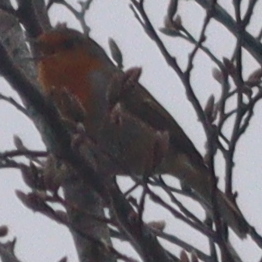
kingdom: Animalia
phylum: Chordata
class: Aves
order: Passeriformes
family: Muscicapidae
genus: Erithacus
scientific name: Erithacus rubecula
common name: European robin
